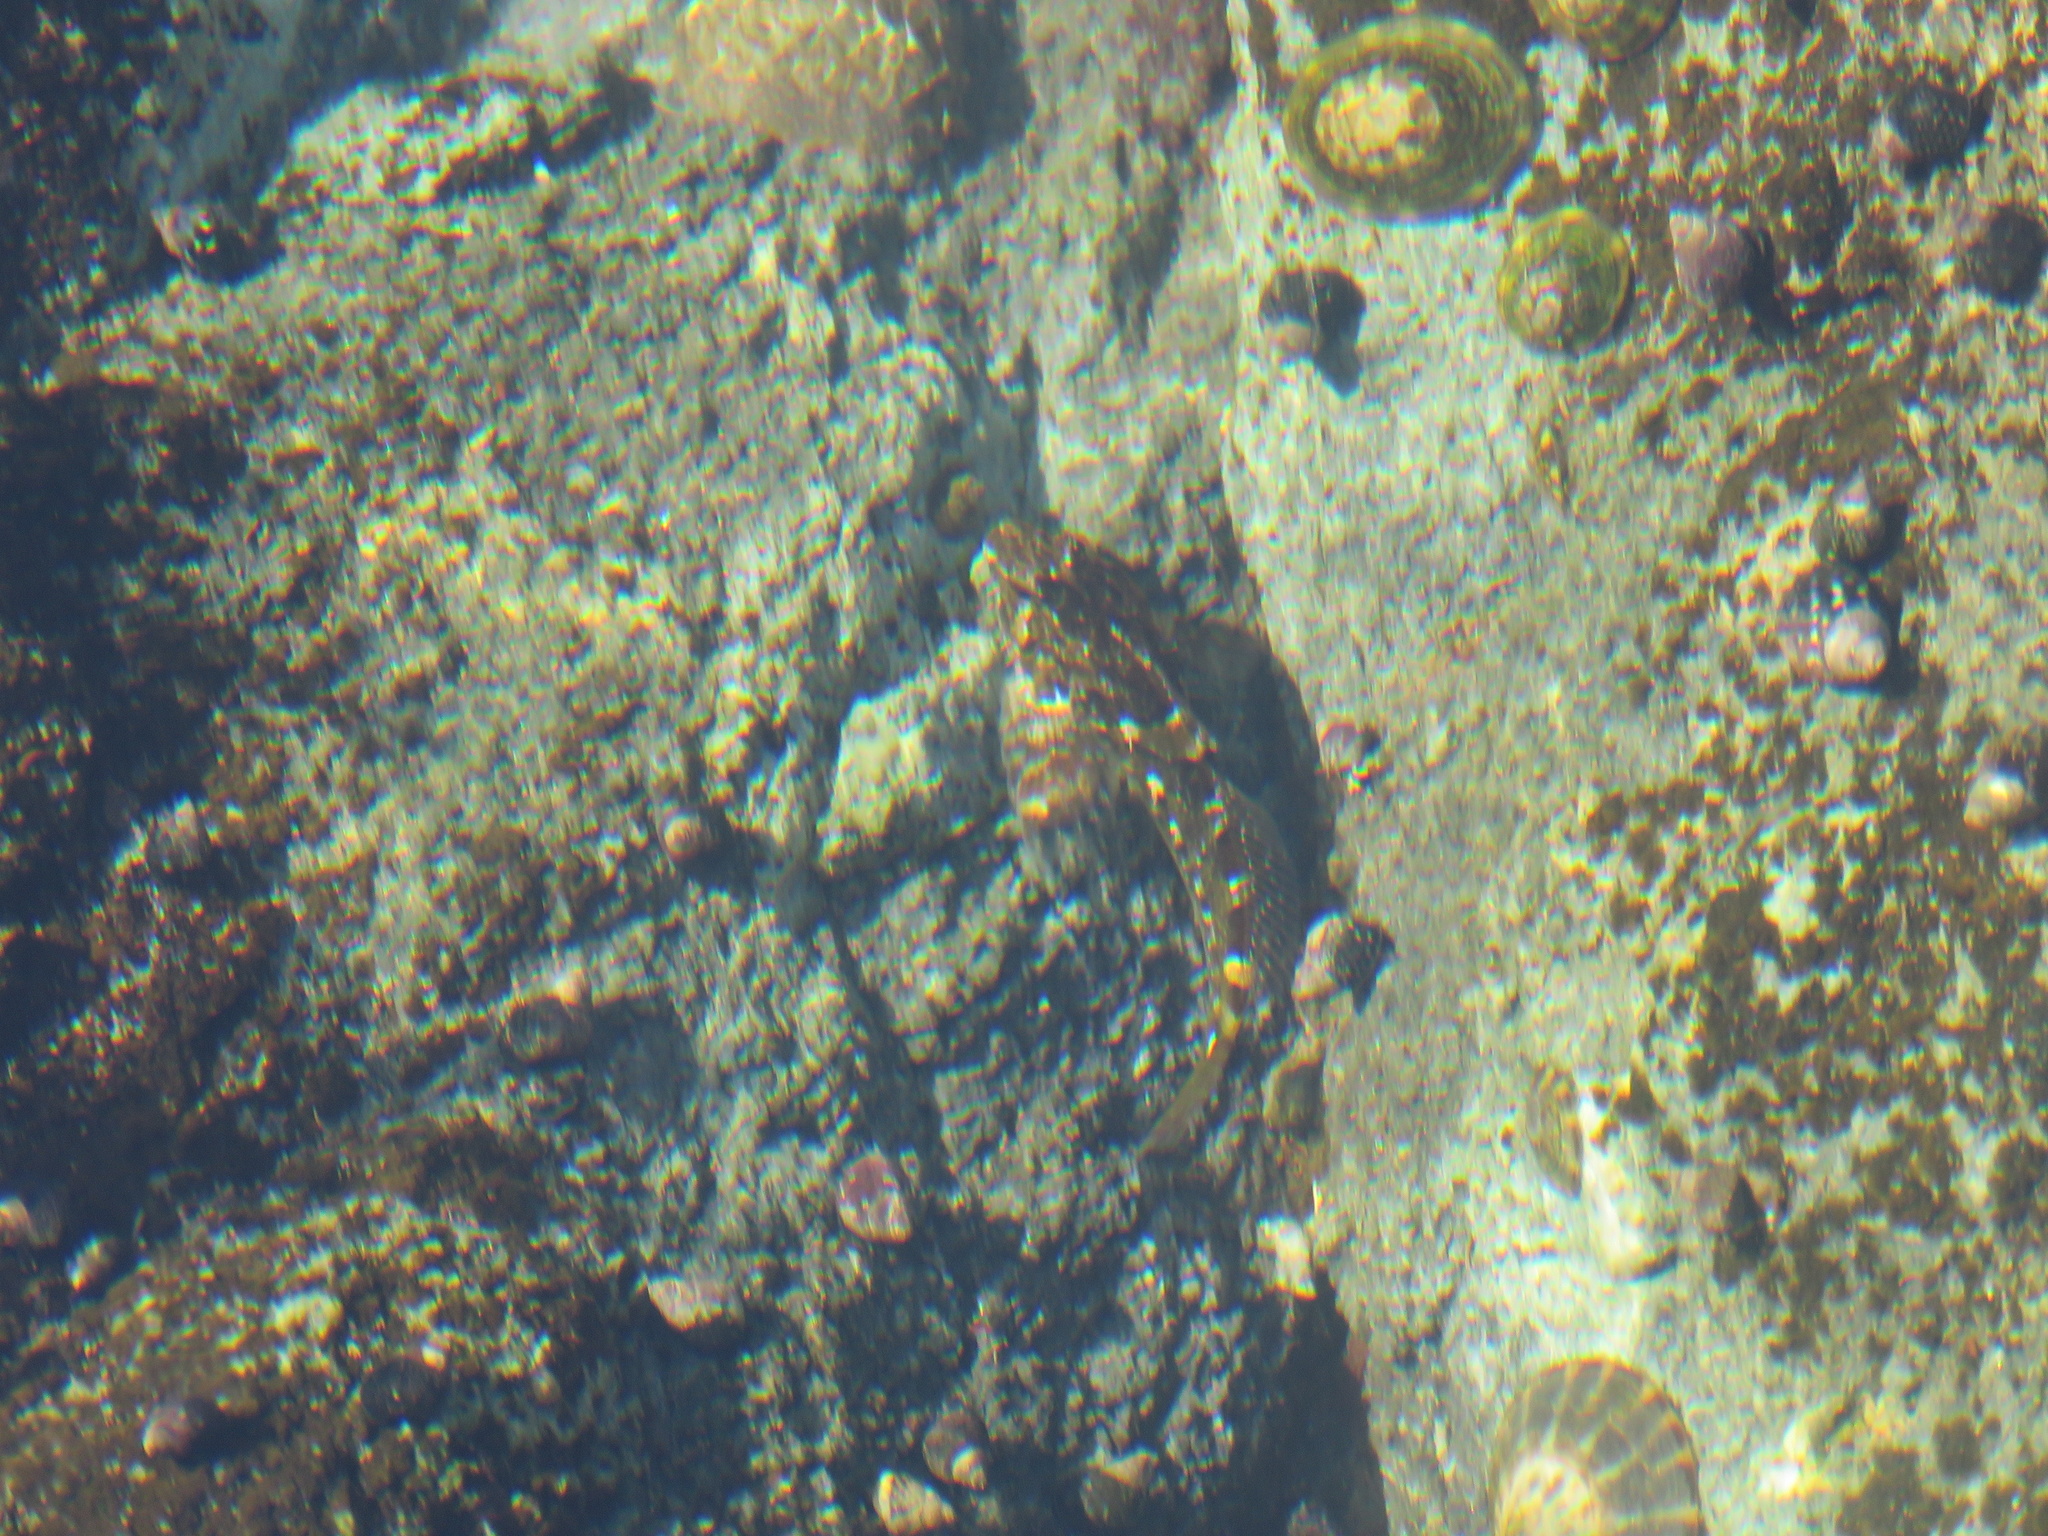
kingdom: Animalia
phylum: Chordata
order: Scorpaeniformes
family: Cottidae
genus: Oligocottus
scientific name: Oligocottus maculosus
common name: Tidepool sculpin
